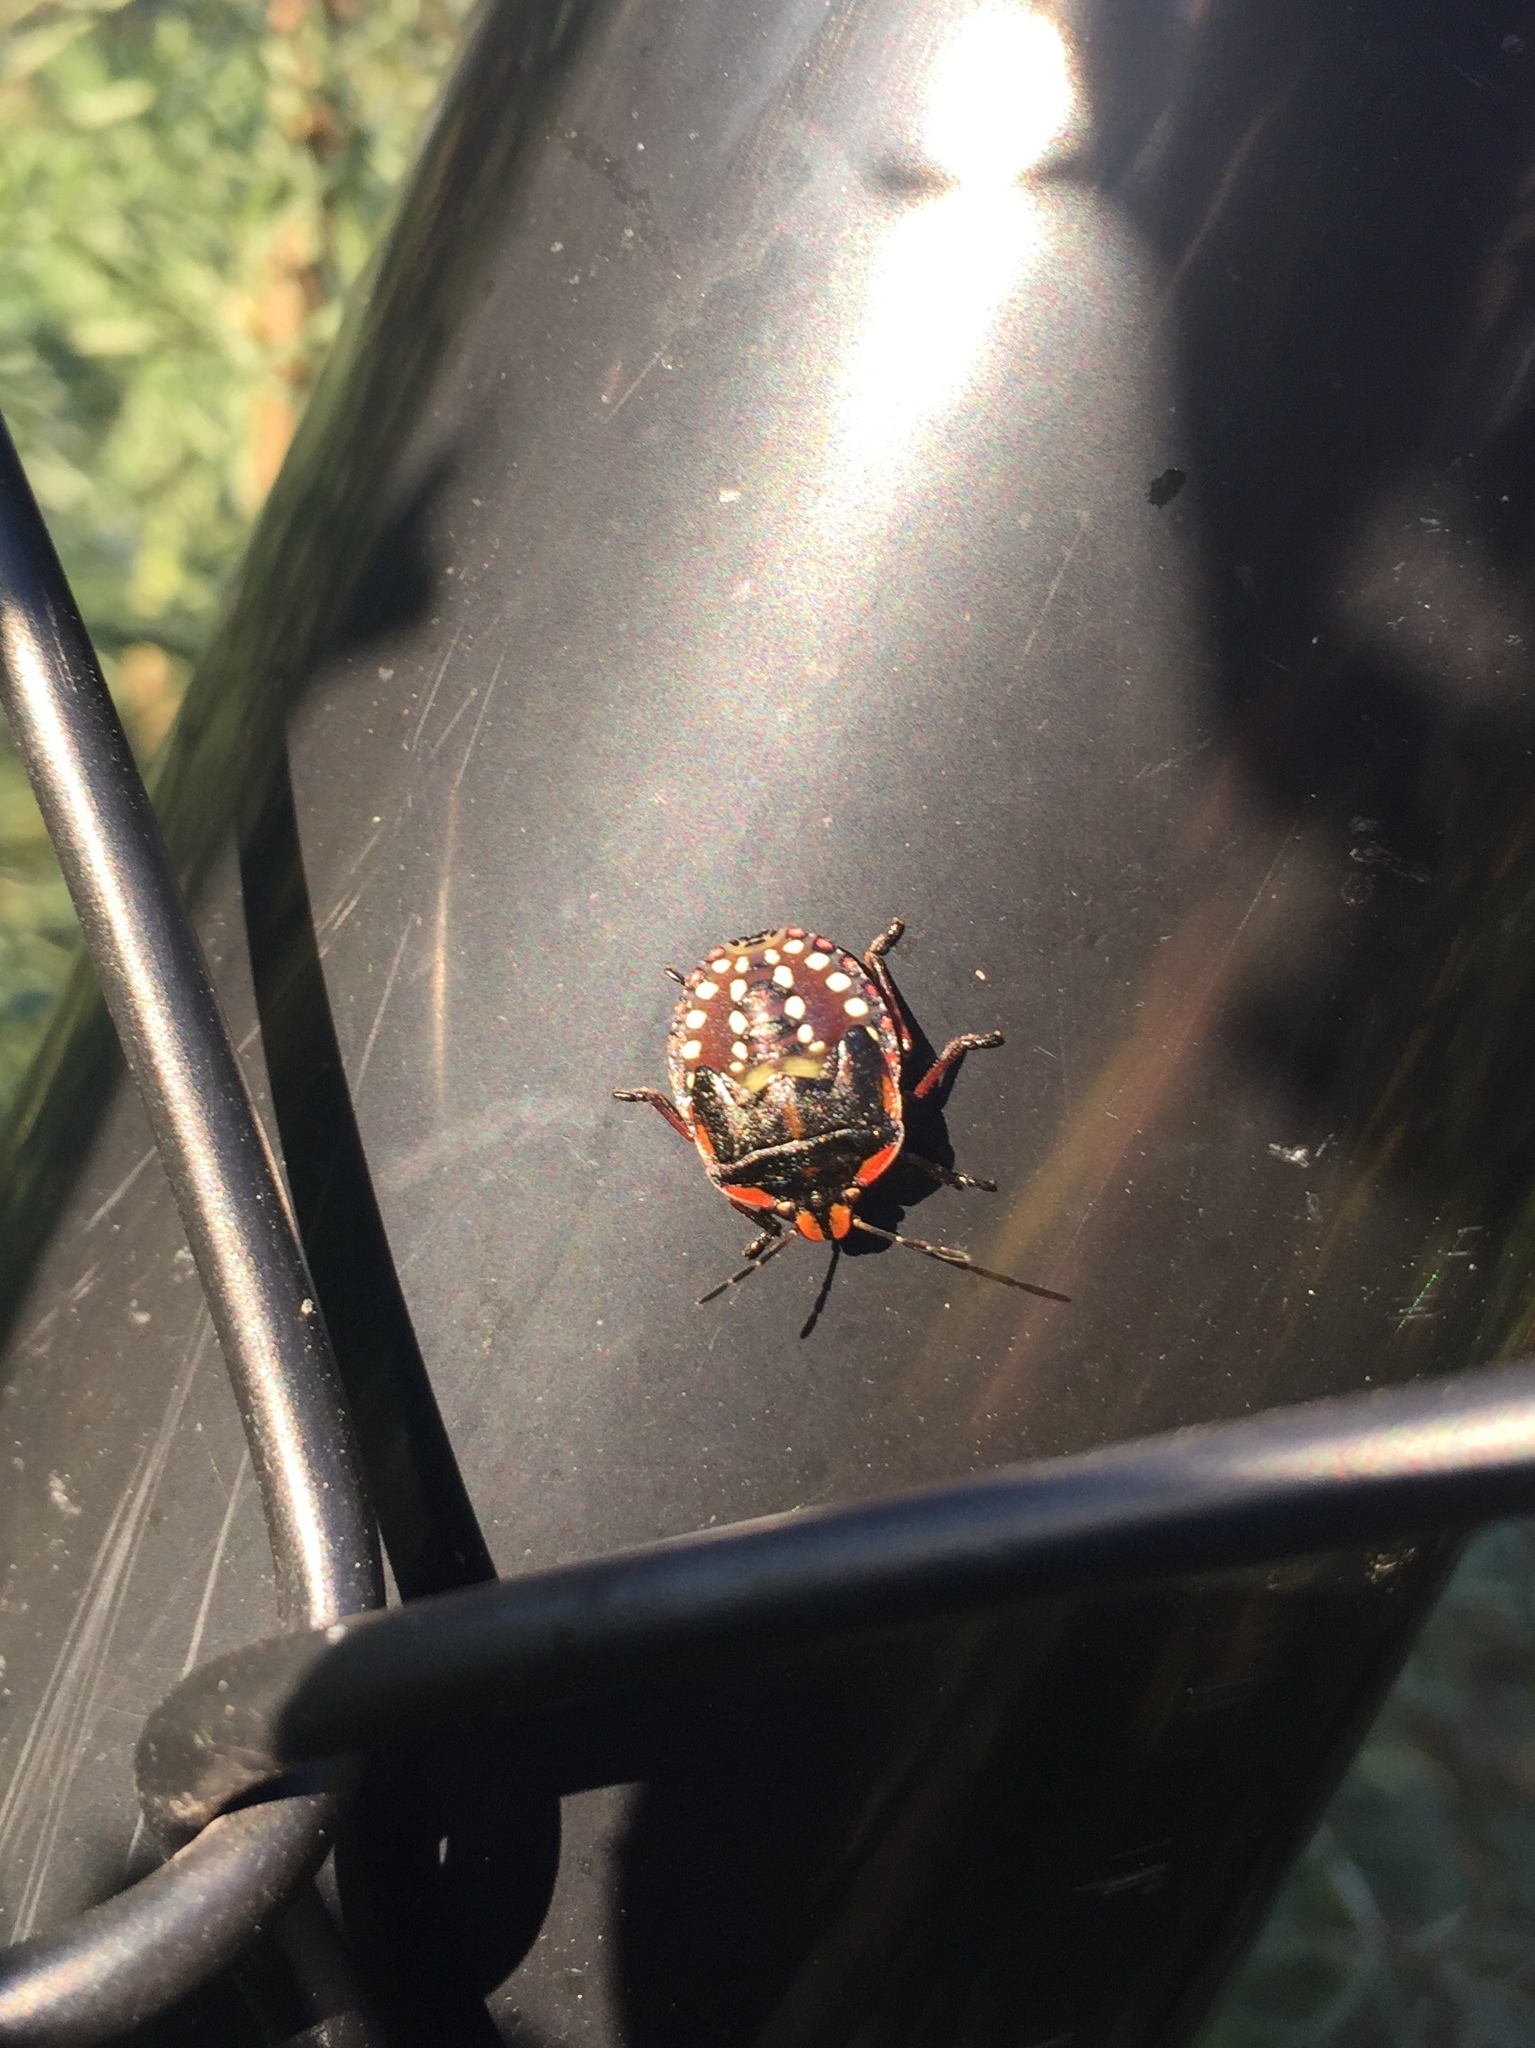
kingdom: Animalia
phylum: Arthropoda
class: Insecta
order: Hemiptera
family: Pentatomidae
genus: Nezara
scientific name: Nezara viridula
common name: Southern green stink bug
